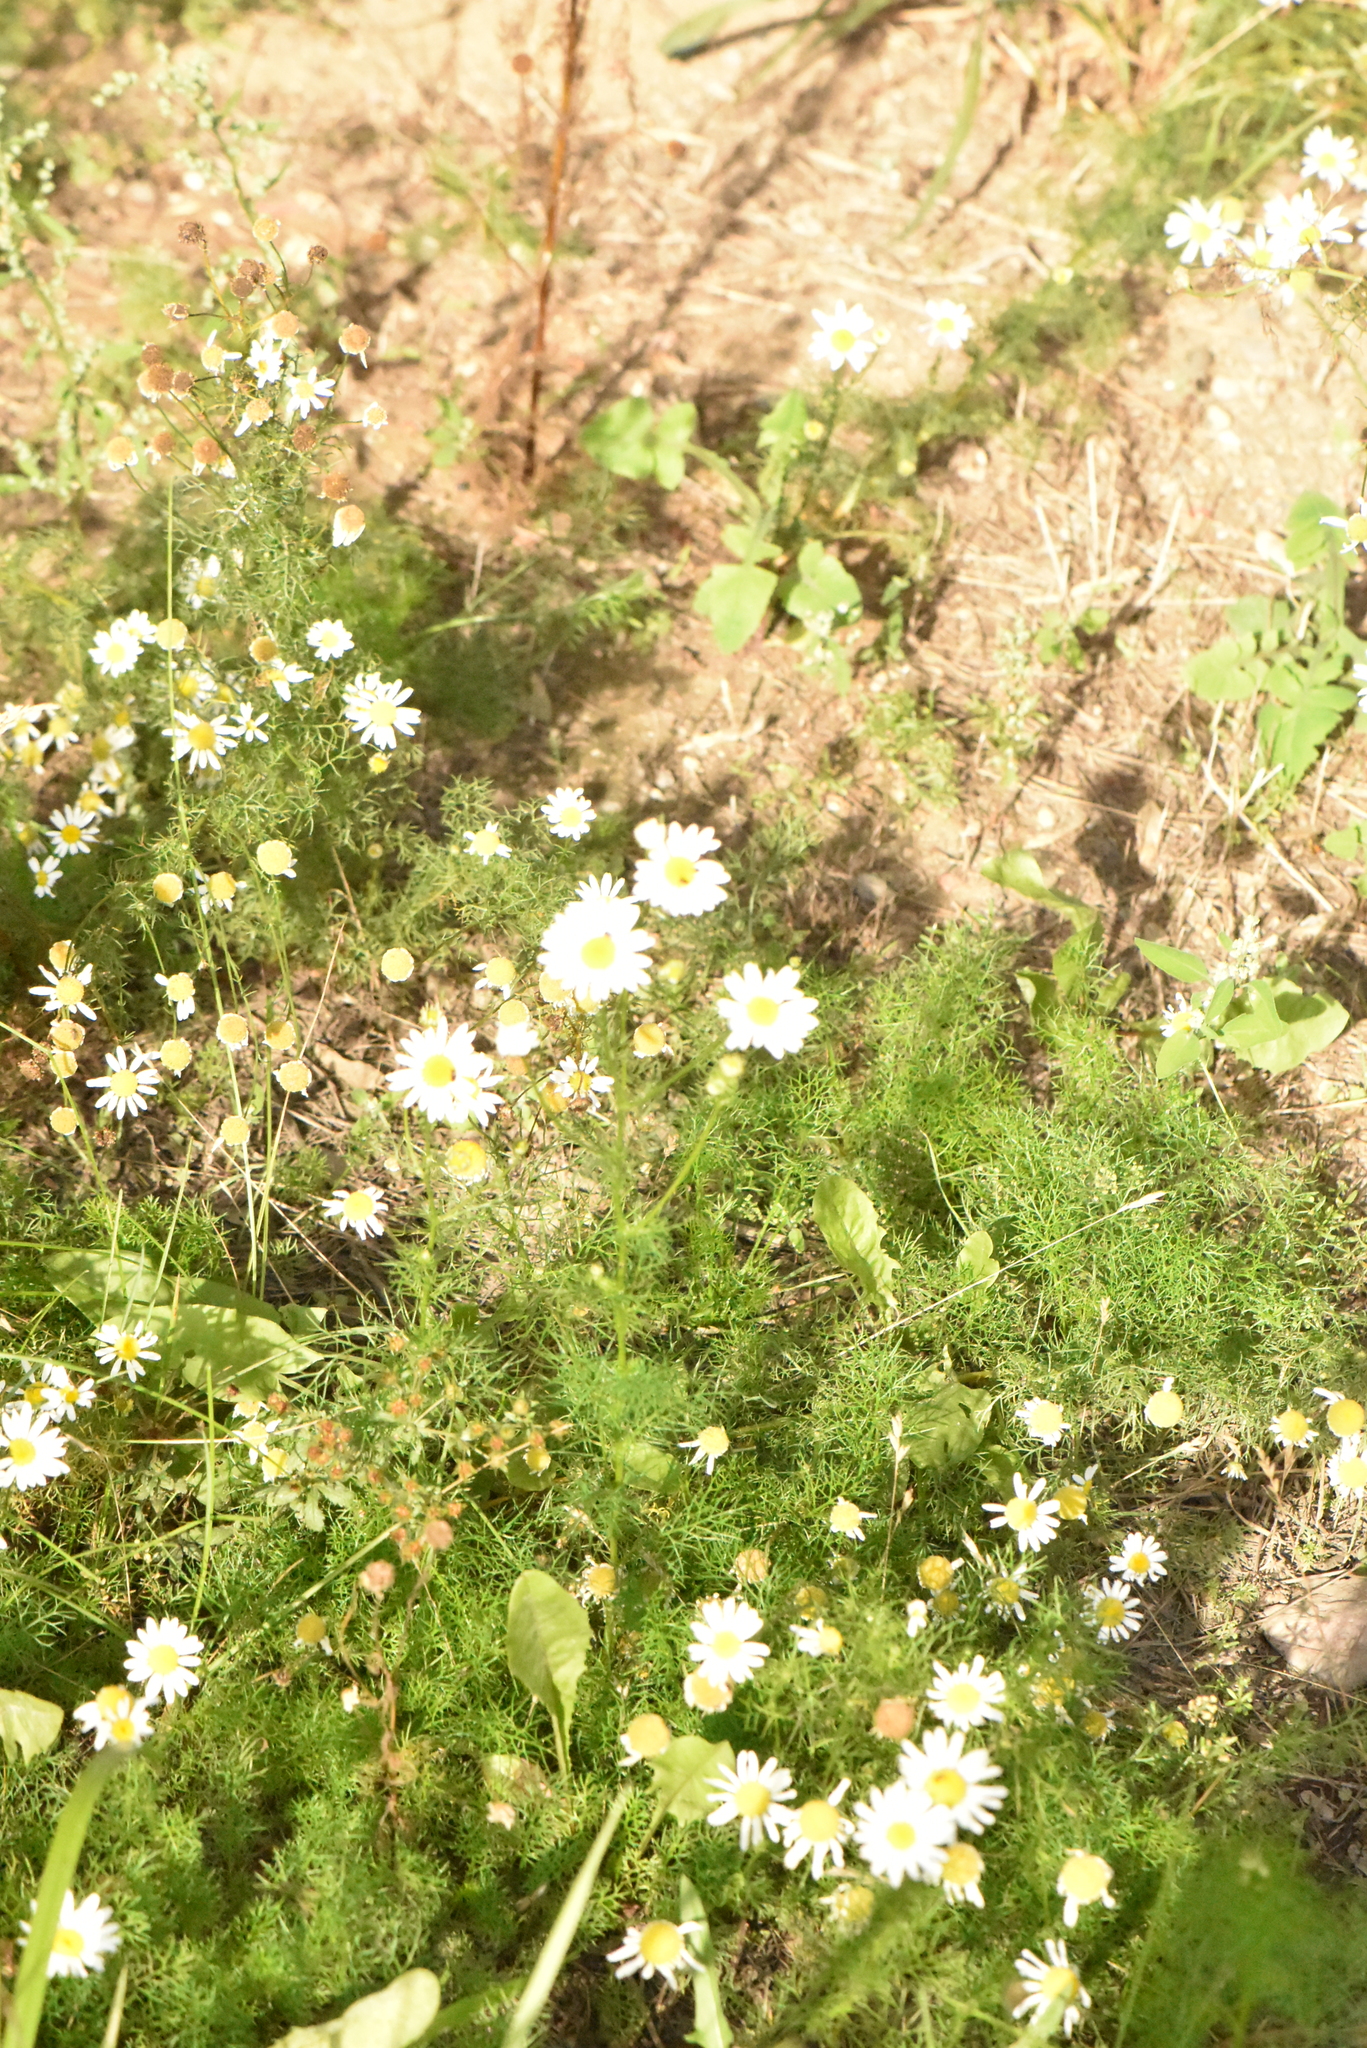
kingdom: Plantae
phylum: Tracheophyta
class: Magnoliopsida
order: Asterales
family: Asteraceae
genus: Tripleurospermum
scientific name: Tripleurospermum inodorum
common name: Scentless mayweed
